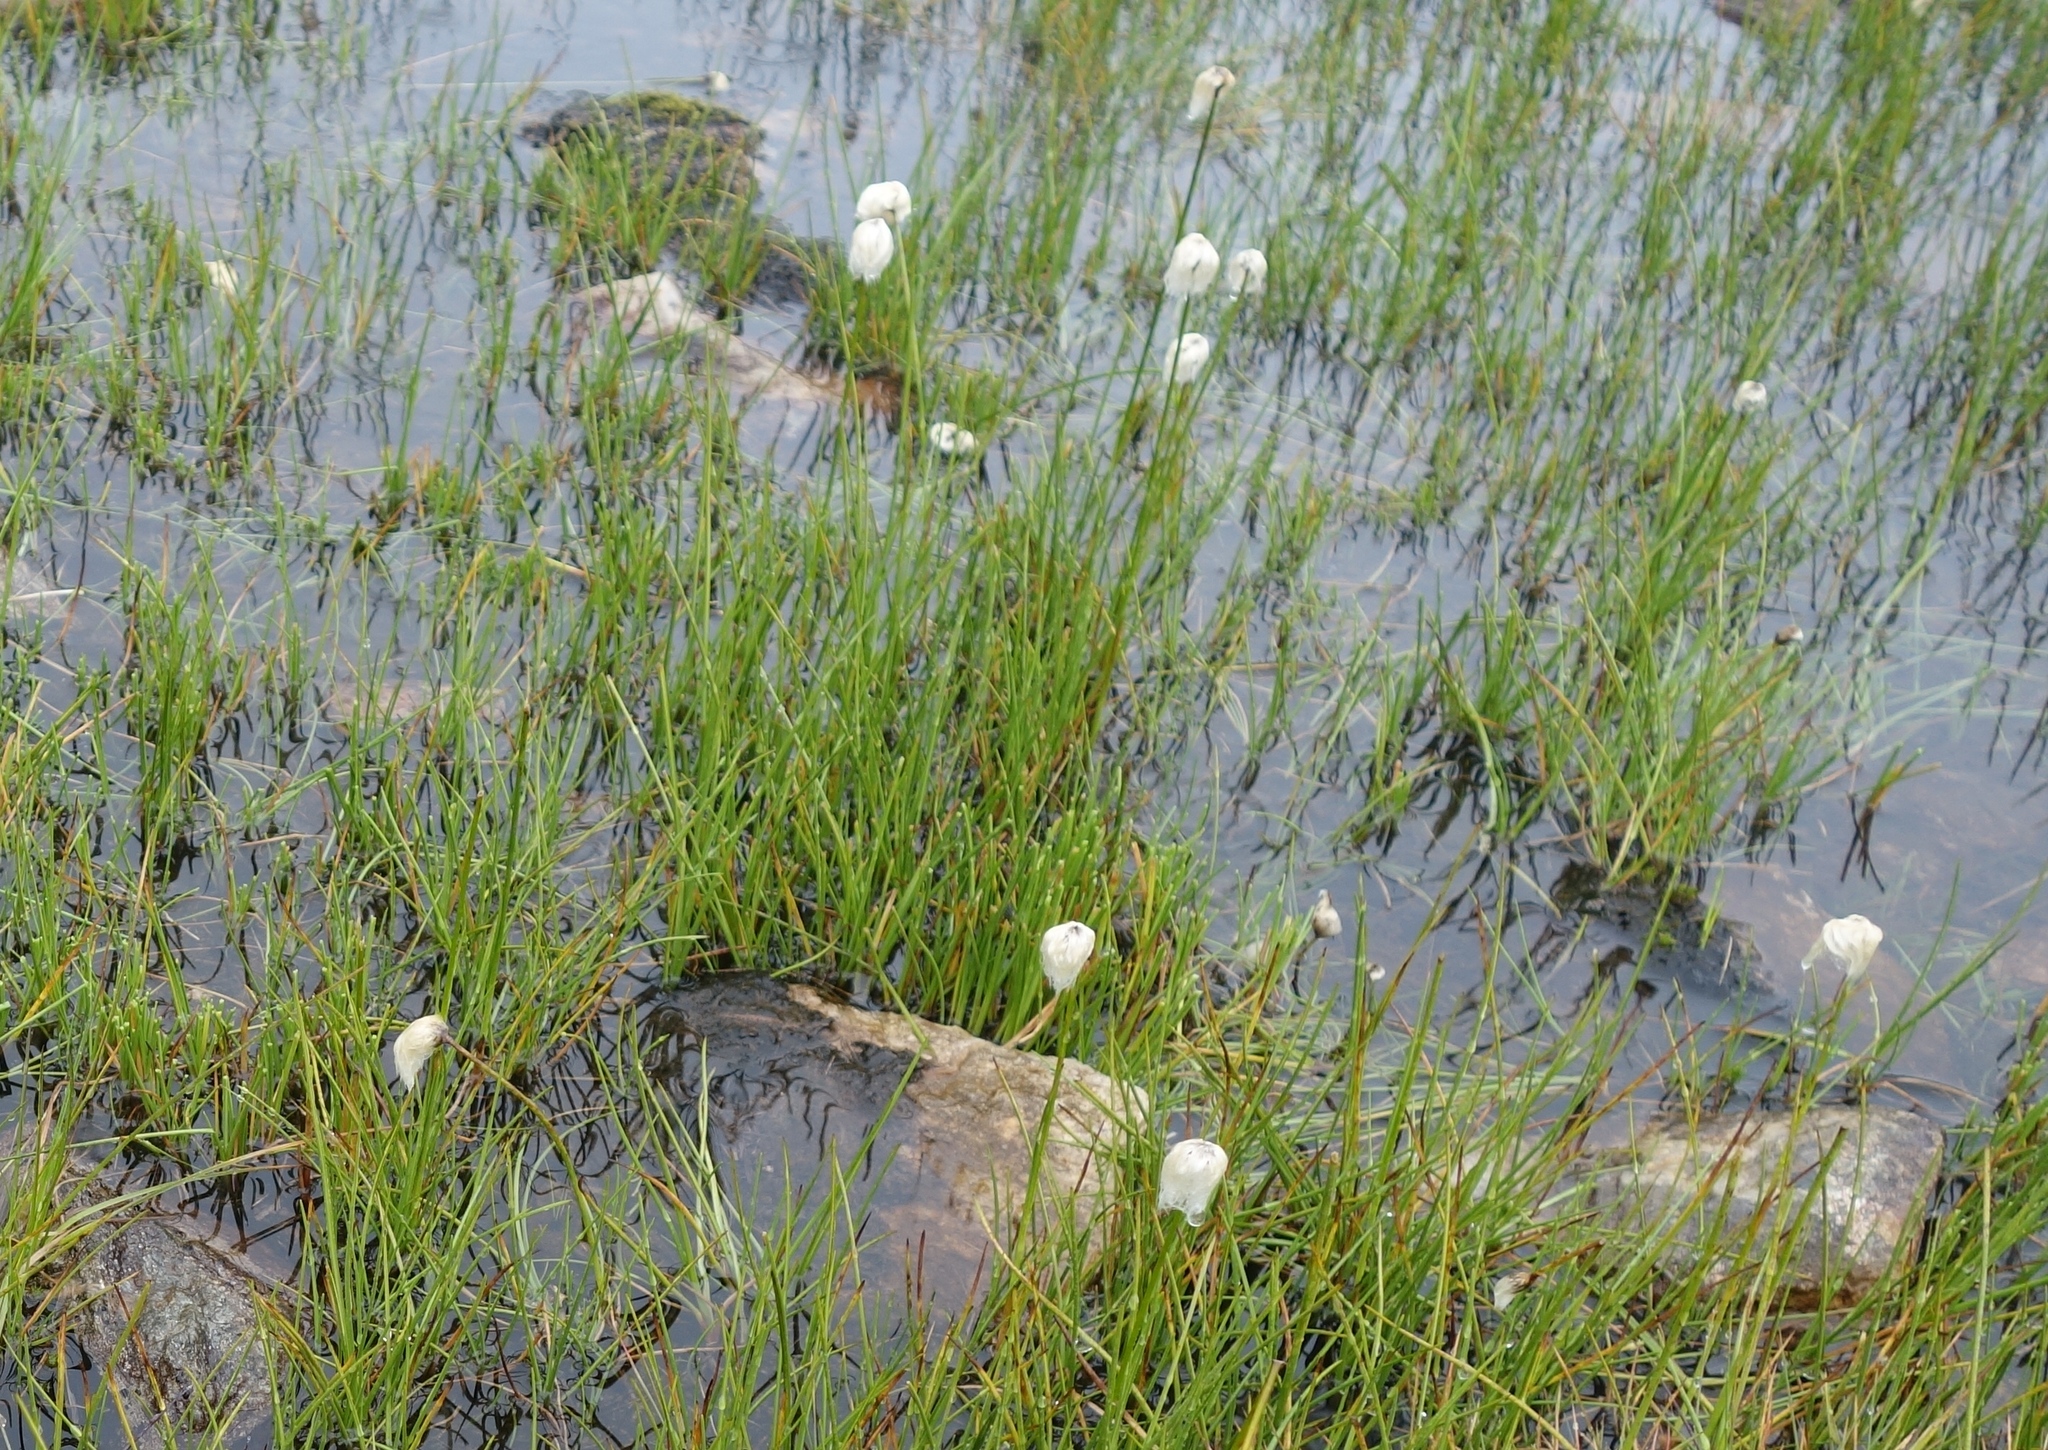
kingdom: Plantae
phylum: Tracheophyta
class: Liliopsida
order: Poales
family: Cyperaceae
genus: Eriophorum
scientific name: Eriophorum scheuchzeri
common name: Scheuchzer's cottongrass
